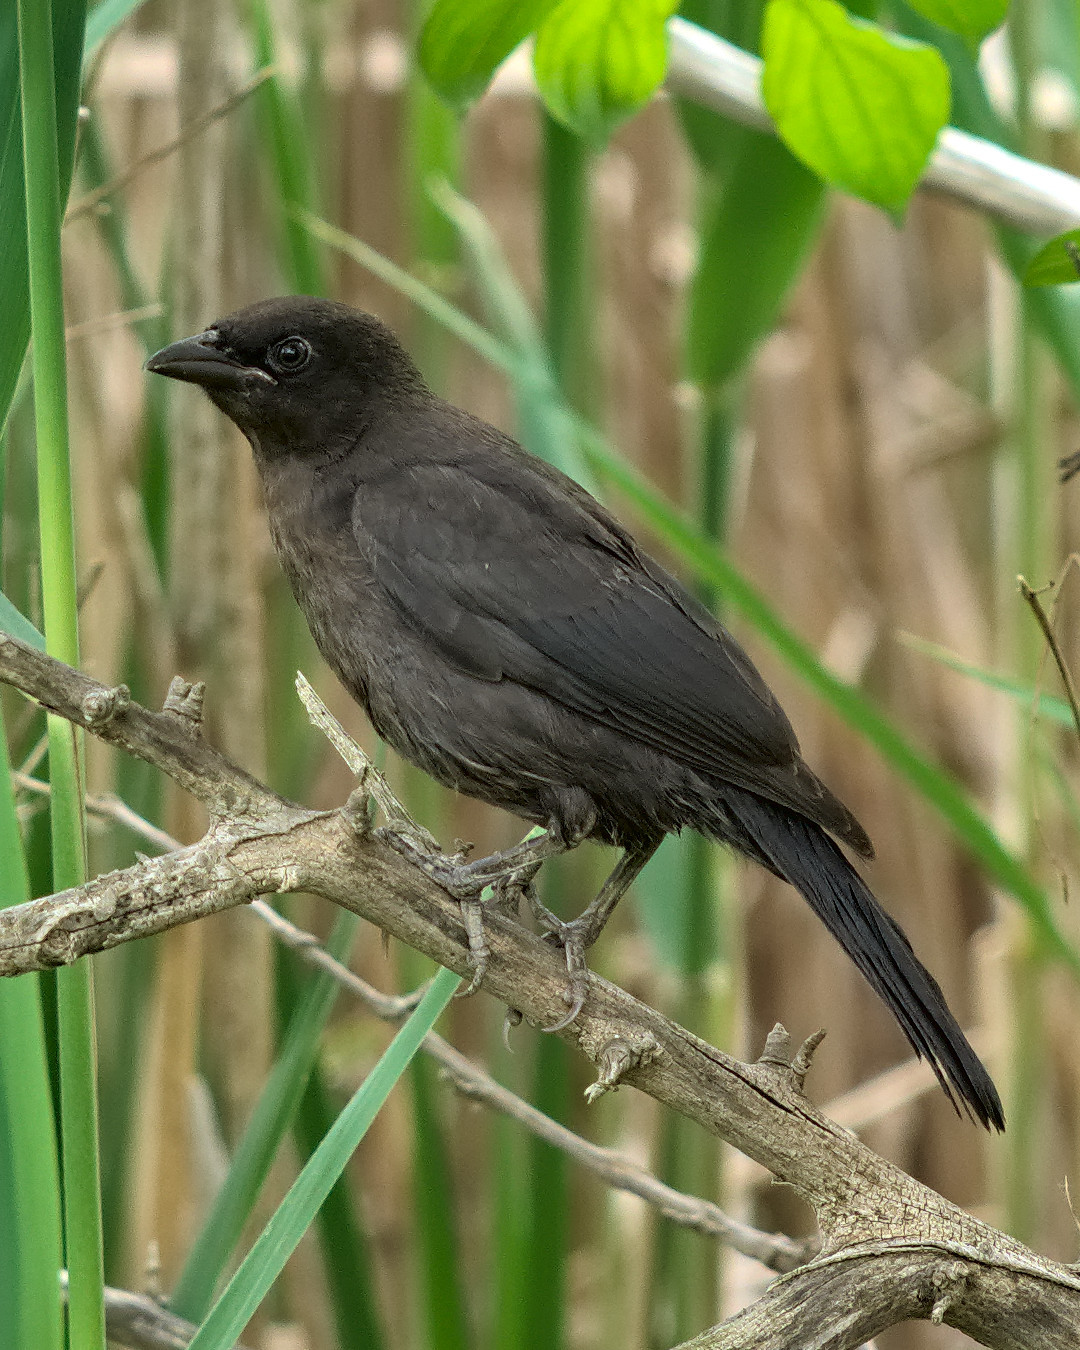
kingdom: Animalia
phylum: Chordata
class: Aves
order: Passeriformes
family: Icteridae
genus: Quiscalus
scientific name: Quiscalus quiscula
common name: Common grackle
